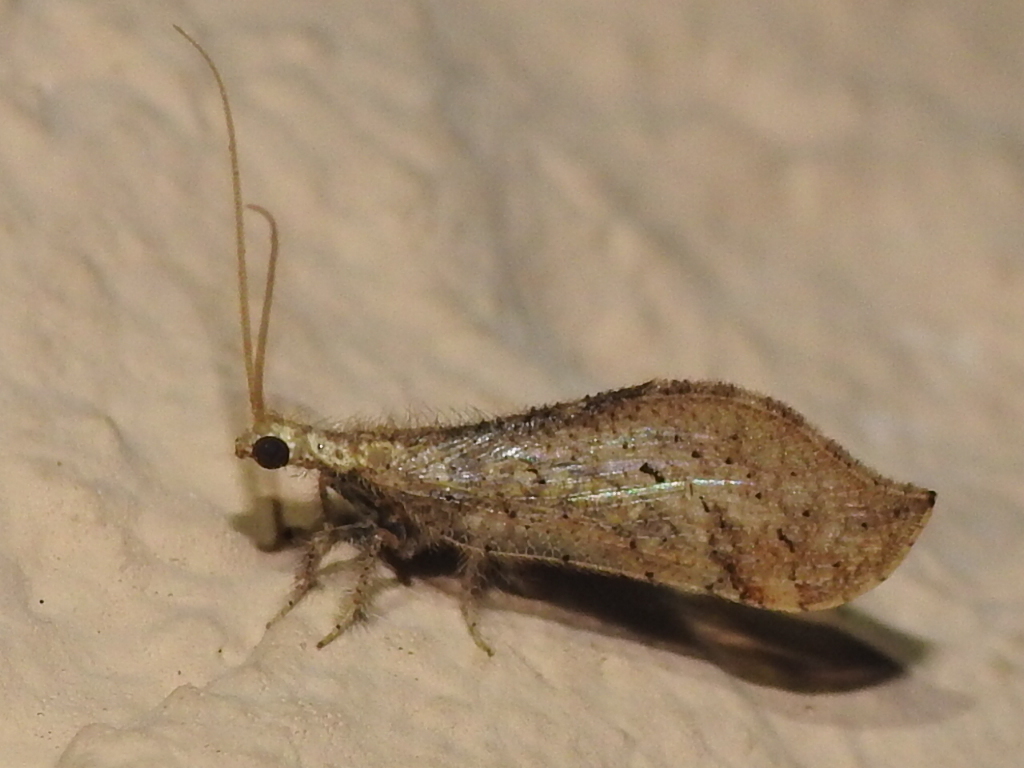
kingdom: Animalia
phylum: Arthropoda
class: Insecta
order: Neuroptera
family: Berothidae
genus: Lomamyia
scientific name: Lomamyia squamosa
